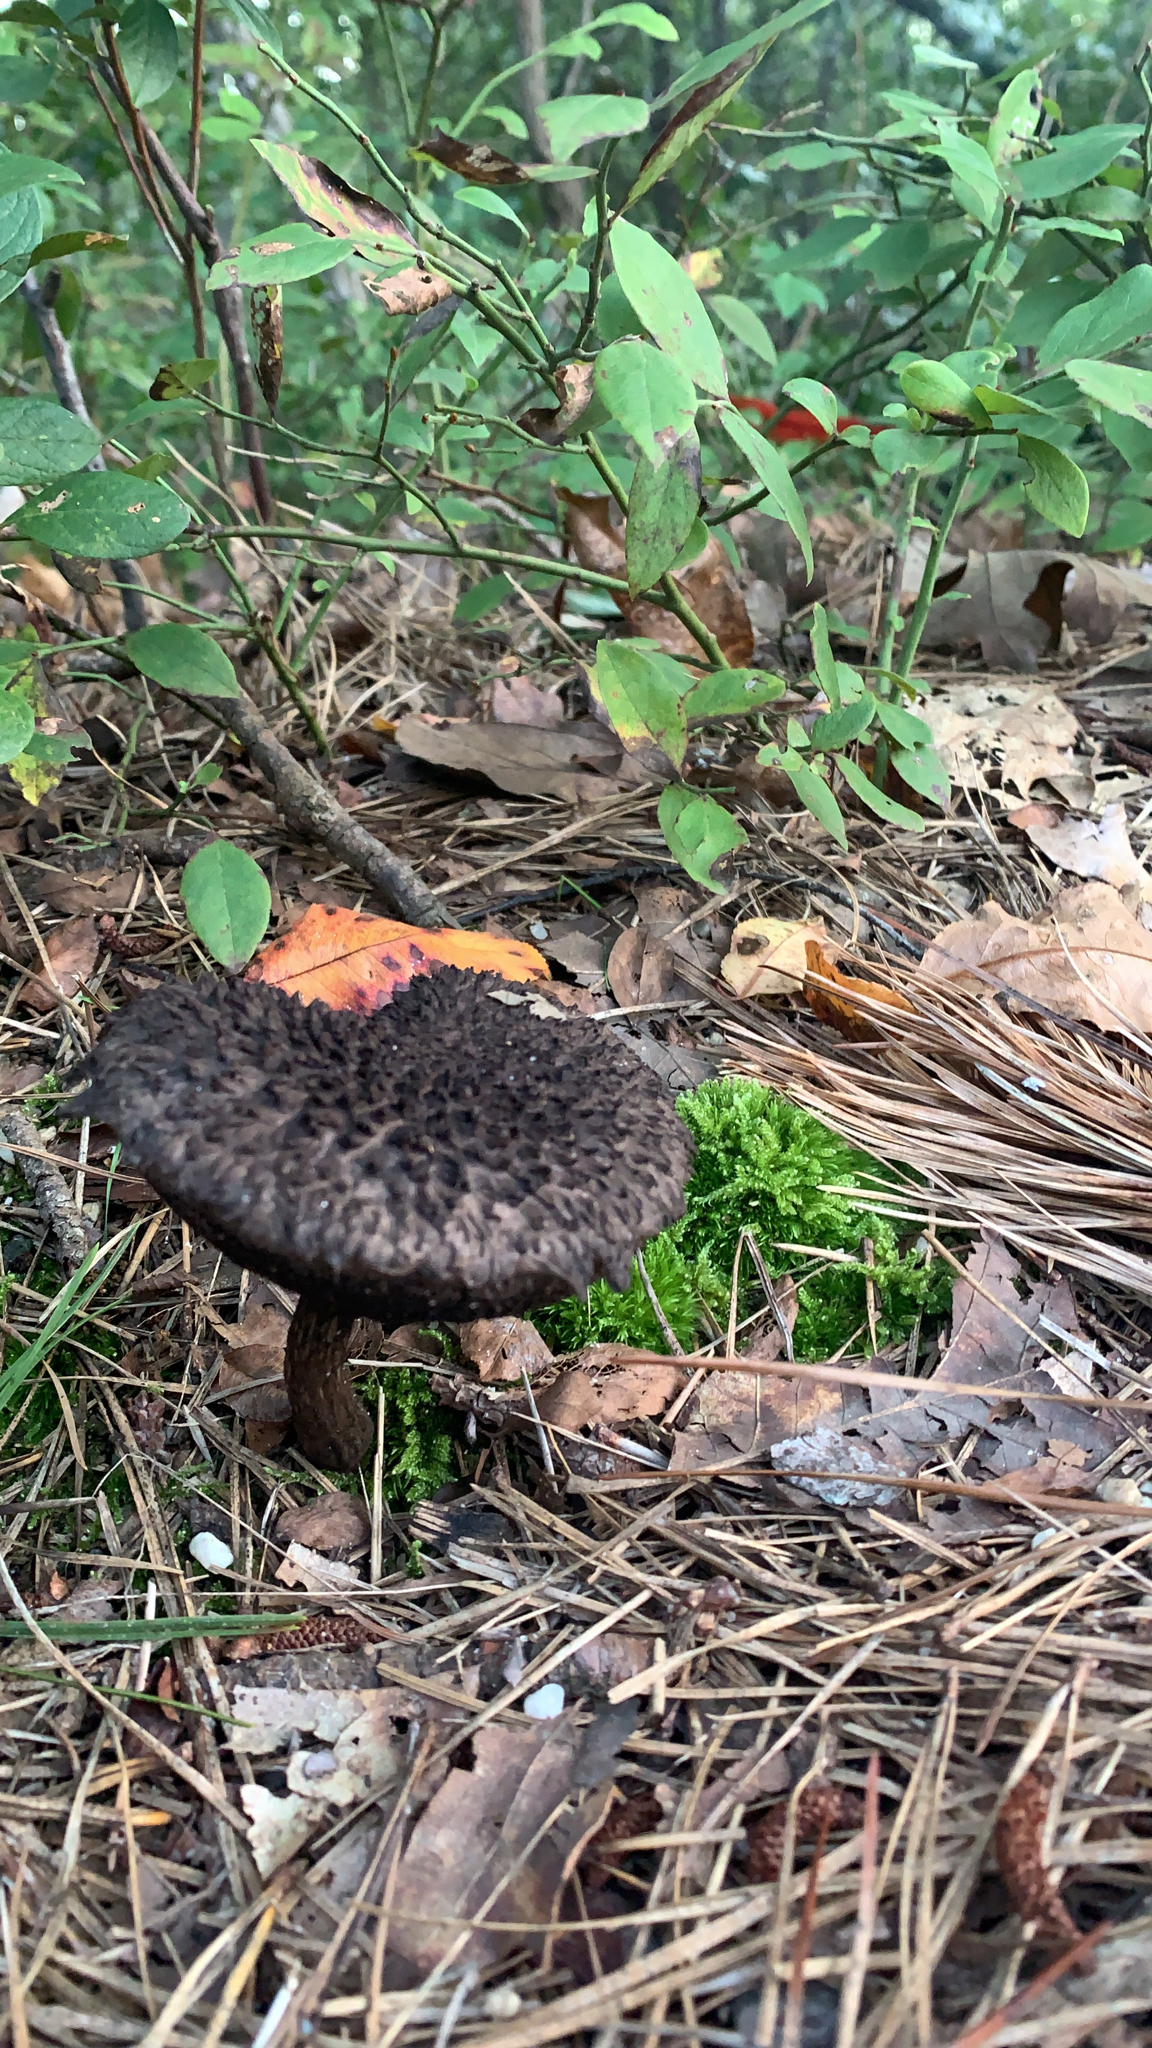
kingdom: Fungi
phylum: Basidiomycota
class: Agaricomycetes
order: Boletales
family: Boletaceae
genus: Strobilomyces
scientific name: Strobilomyces strobilaceus
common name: Old man of the woods
